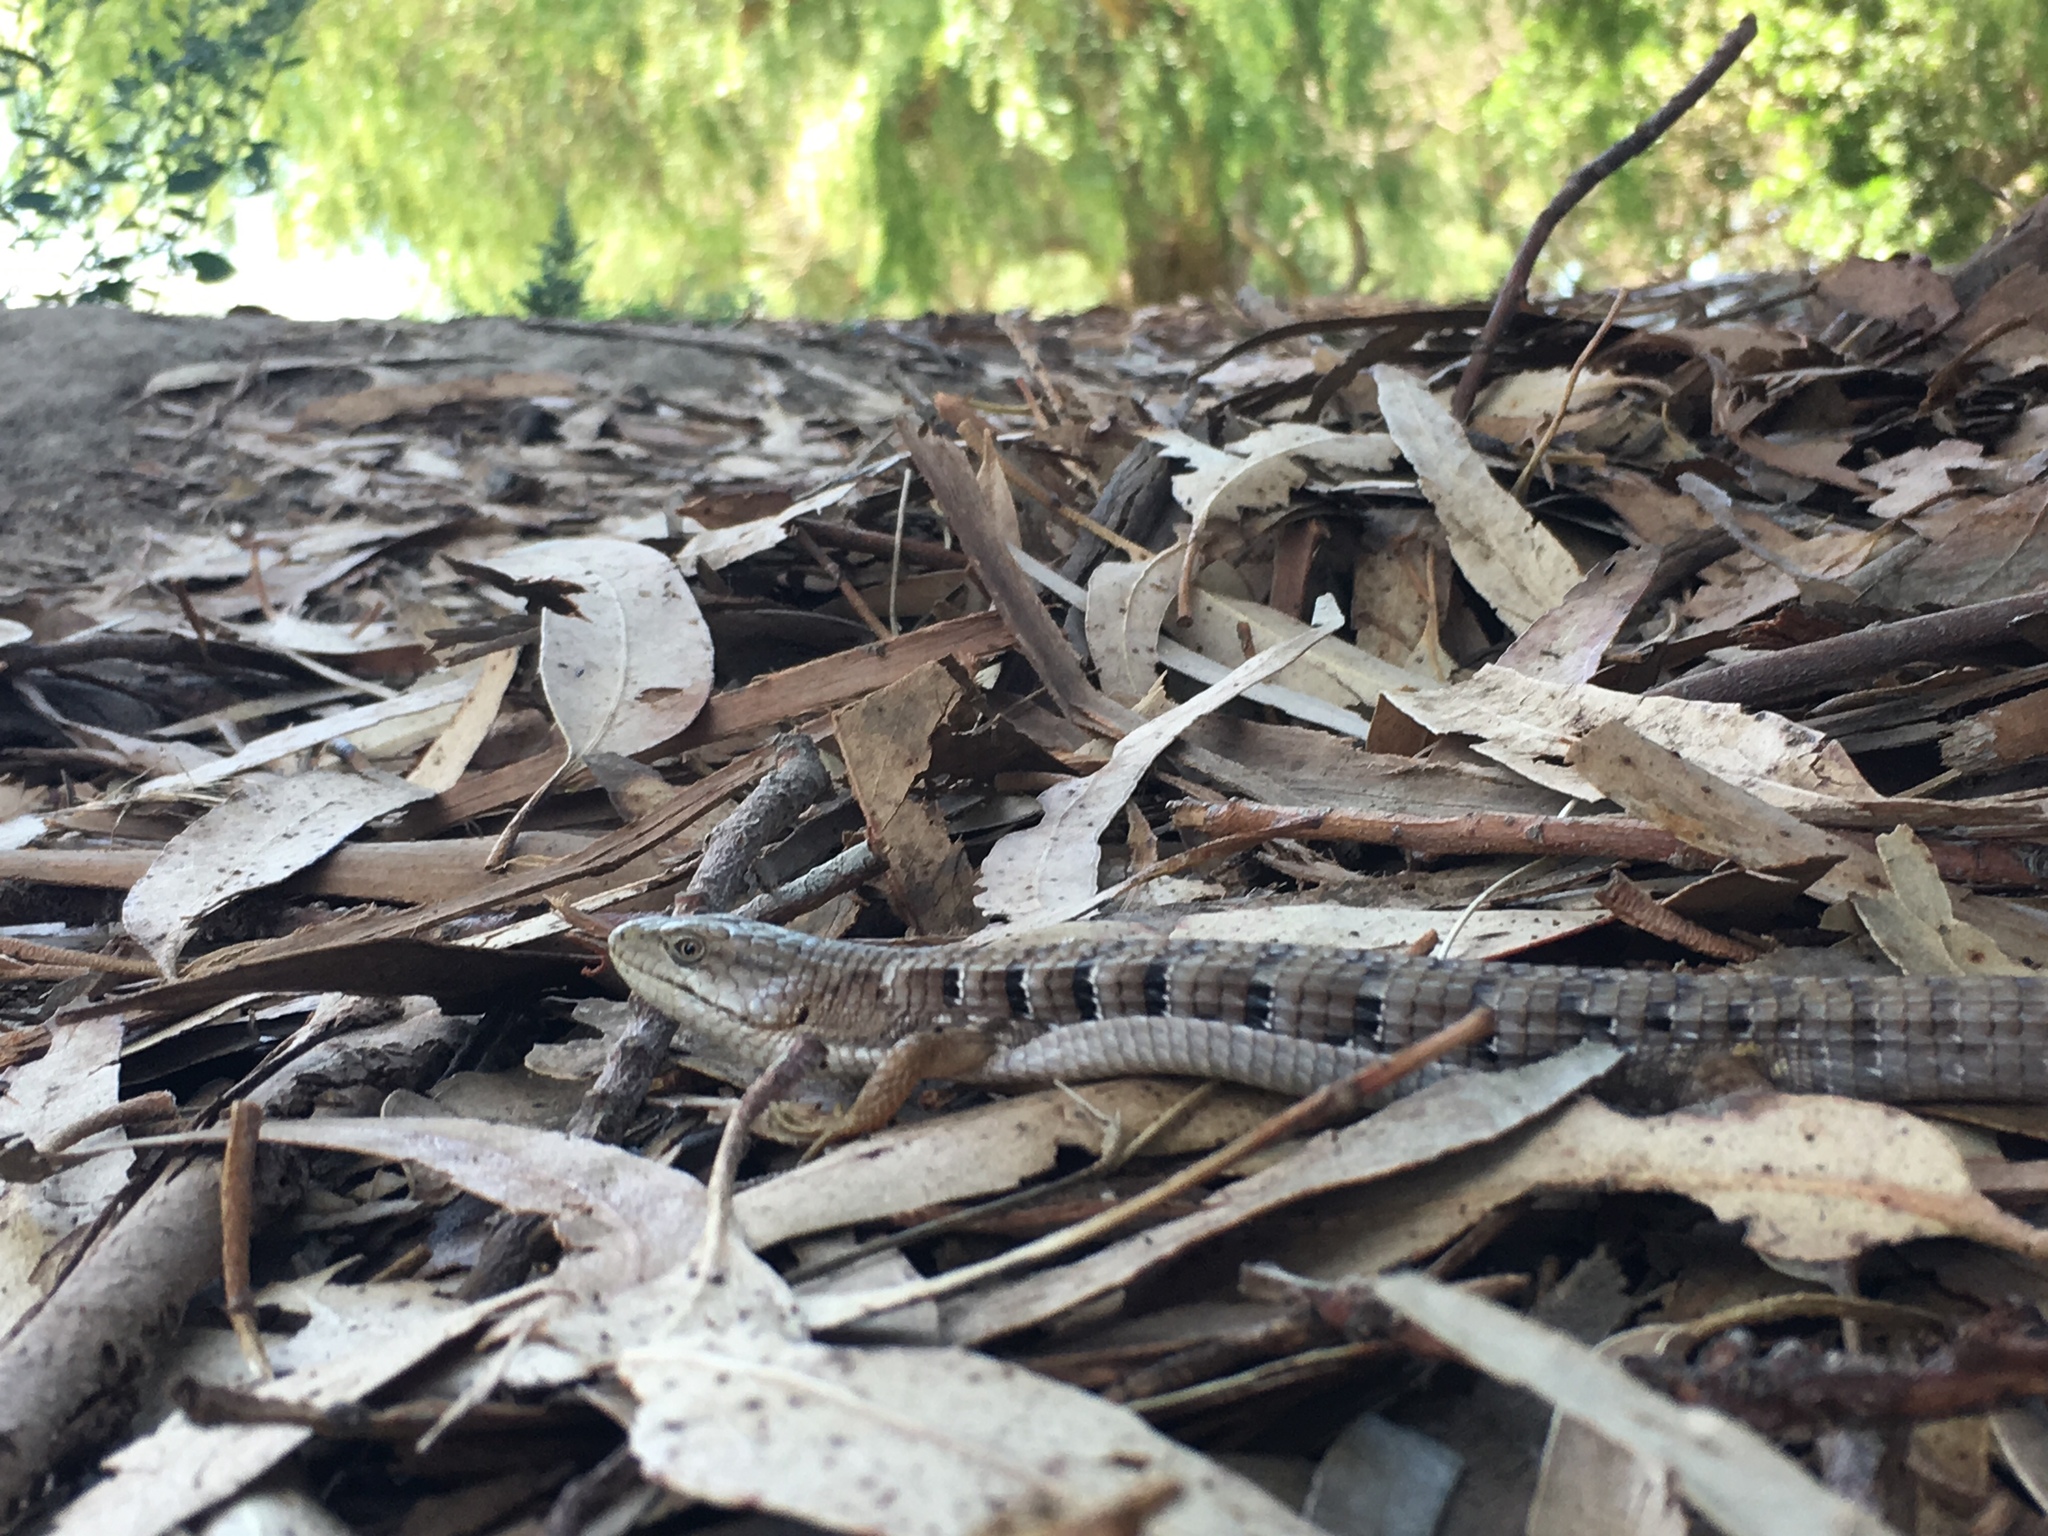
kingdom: Animalia
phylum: Chordata
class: Squamata
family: Anguidae
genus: Elgaria
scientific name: Elgaria multicarinata
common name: Southern alligator lizard
